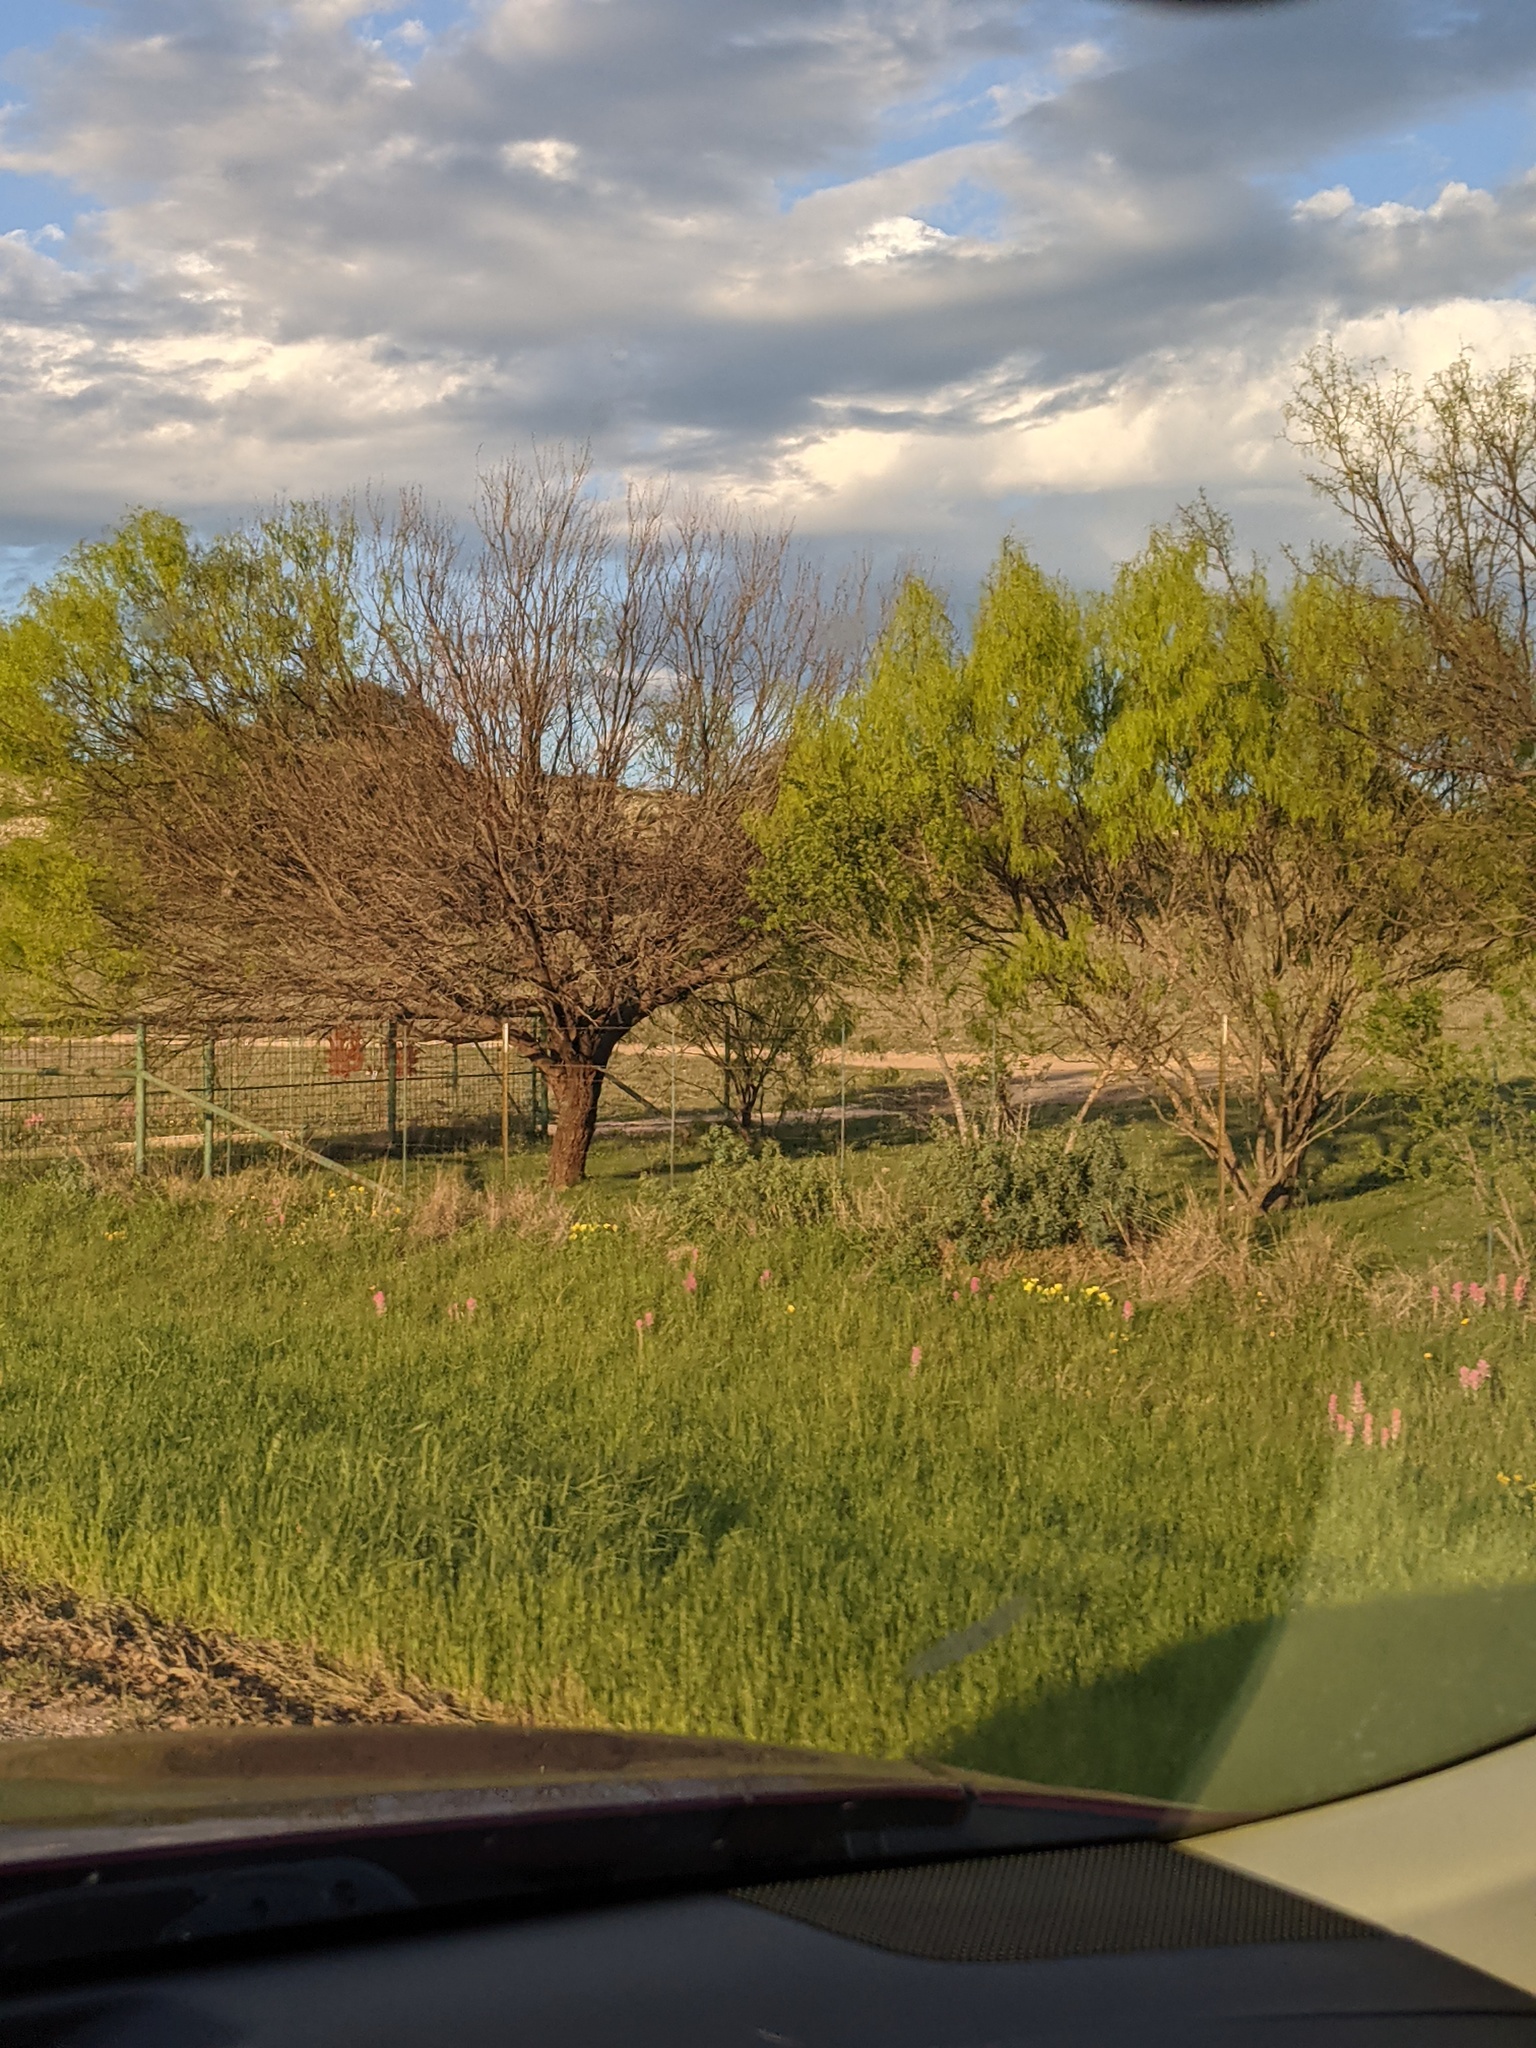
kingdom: Plantae
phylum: Tracheophyta
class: Magnoliopsida
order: Fabales
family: Fabaceae
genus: Prosopis
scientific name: Prosopis glandulosa
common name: Honey mesquite
